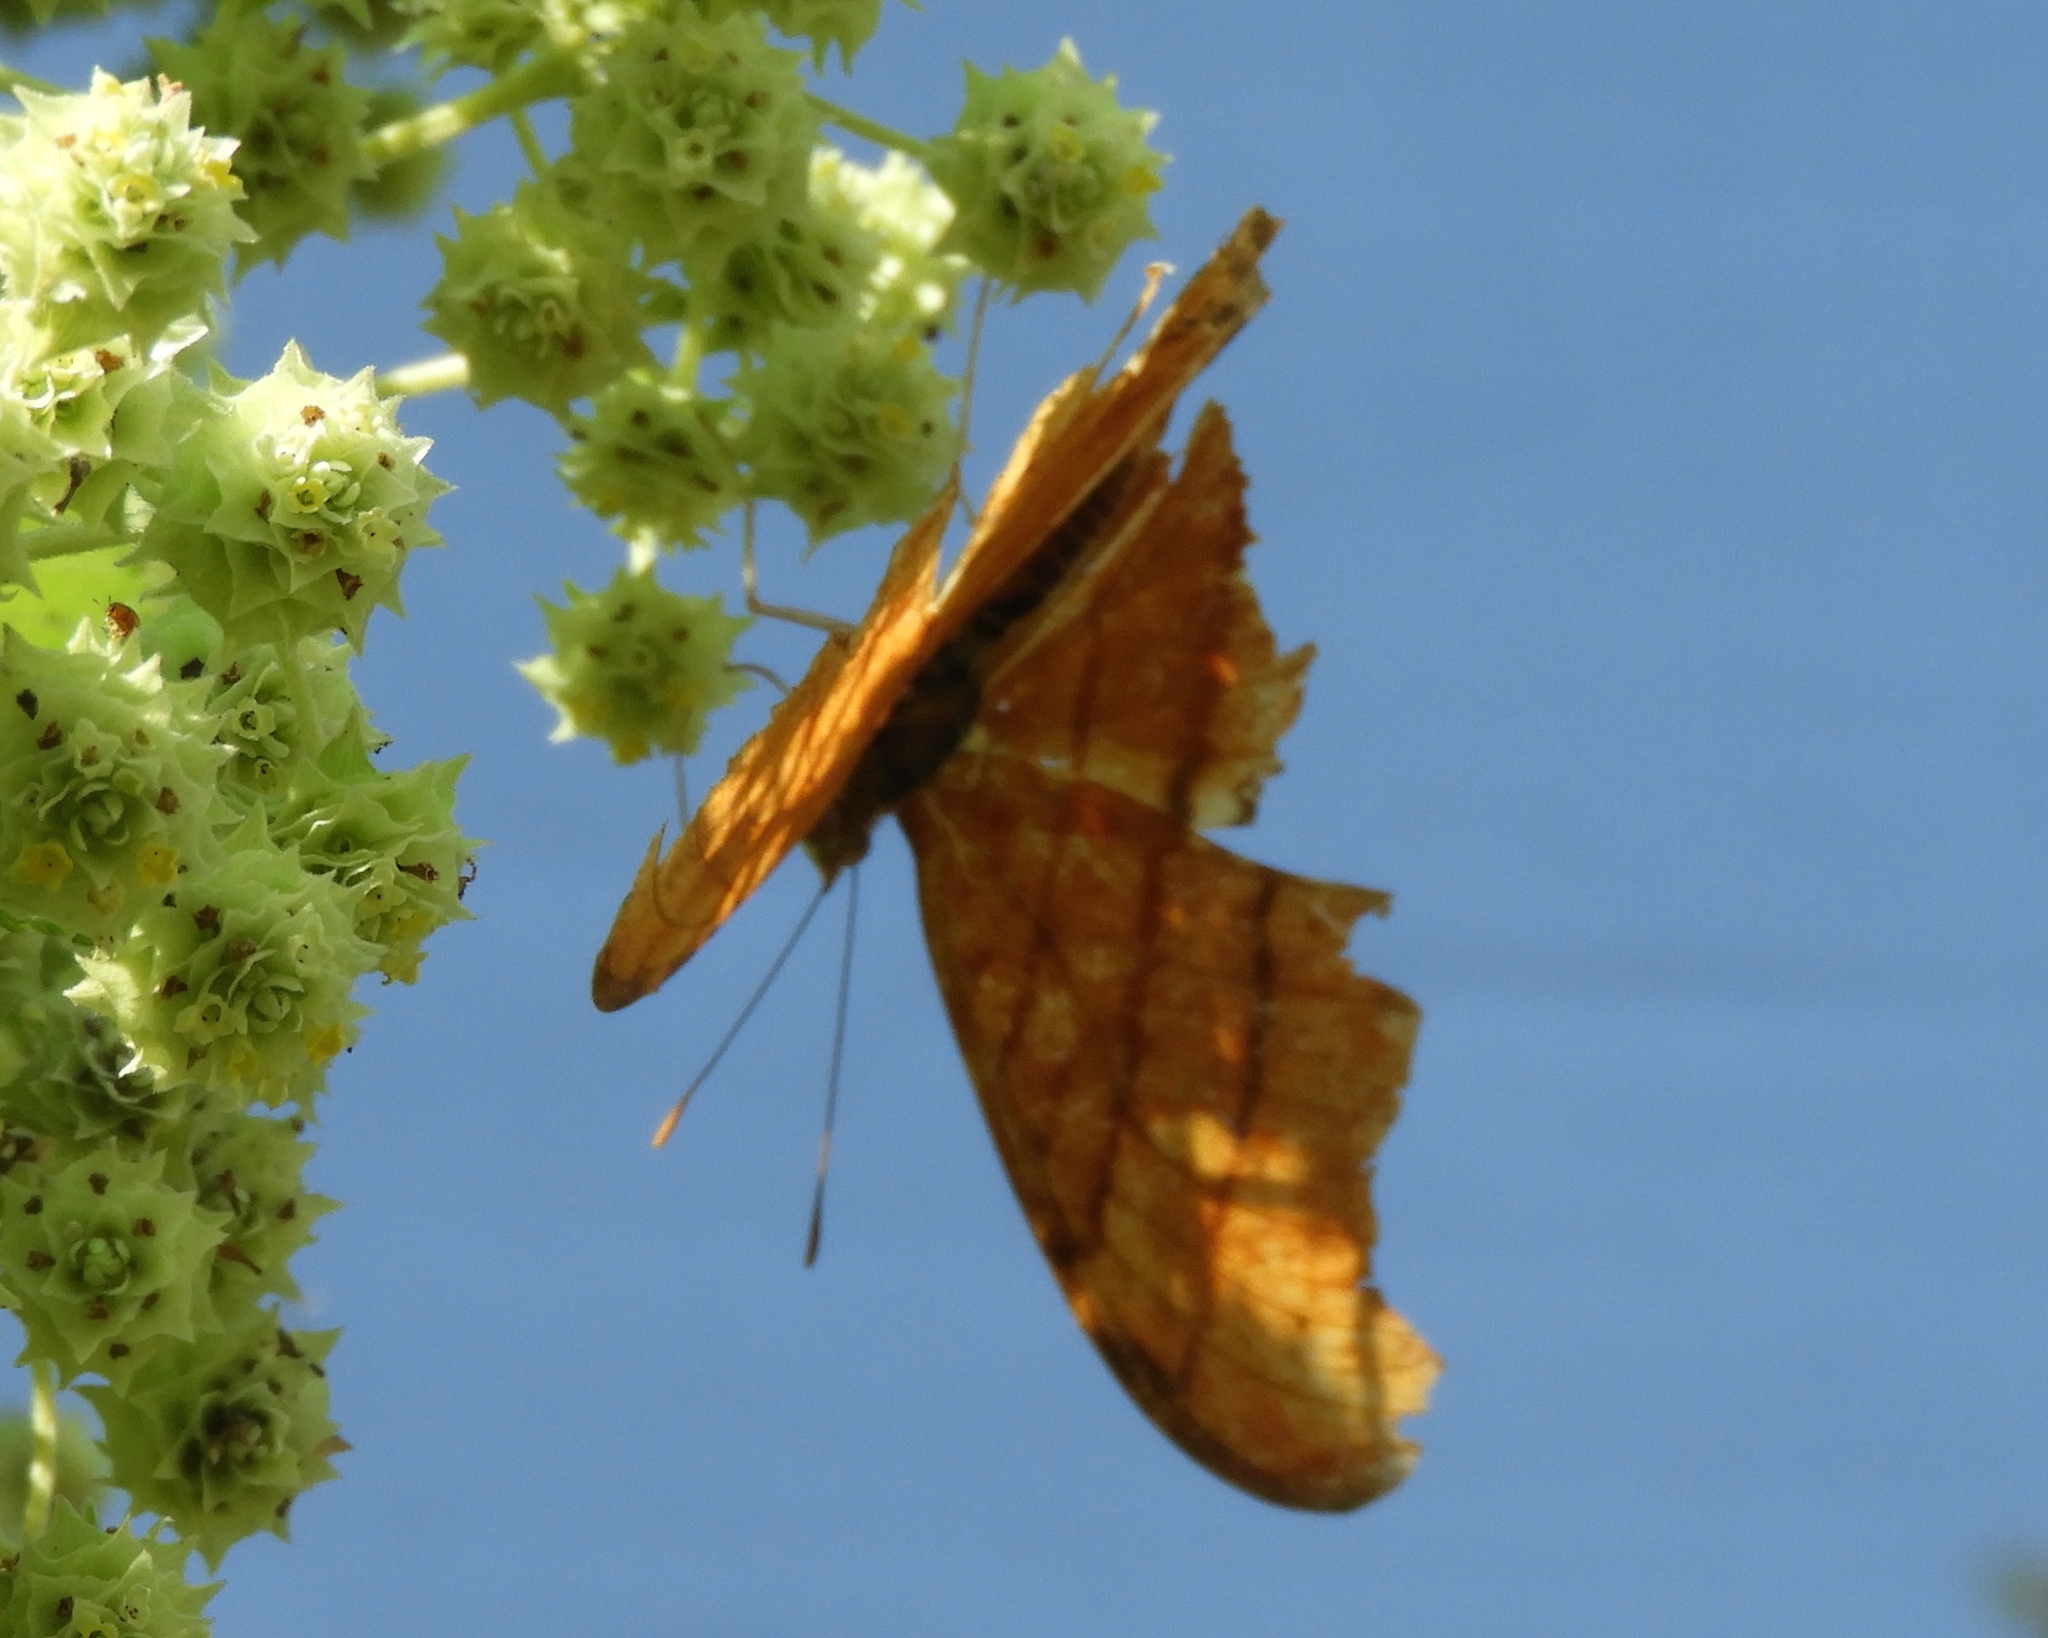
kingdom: Animalia
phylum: Arthropoda
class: Insecta
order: Lepidoptera
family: Nymphalidae
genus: Marpesia
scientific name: Marpesia petreus
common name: Red dagger wing
